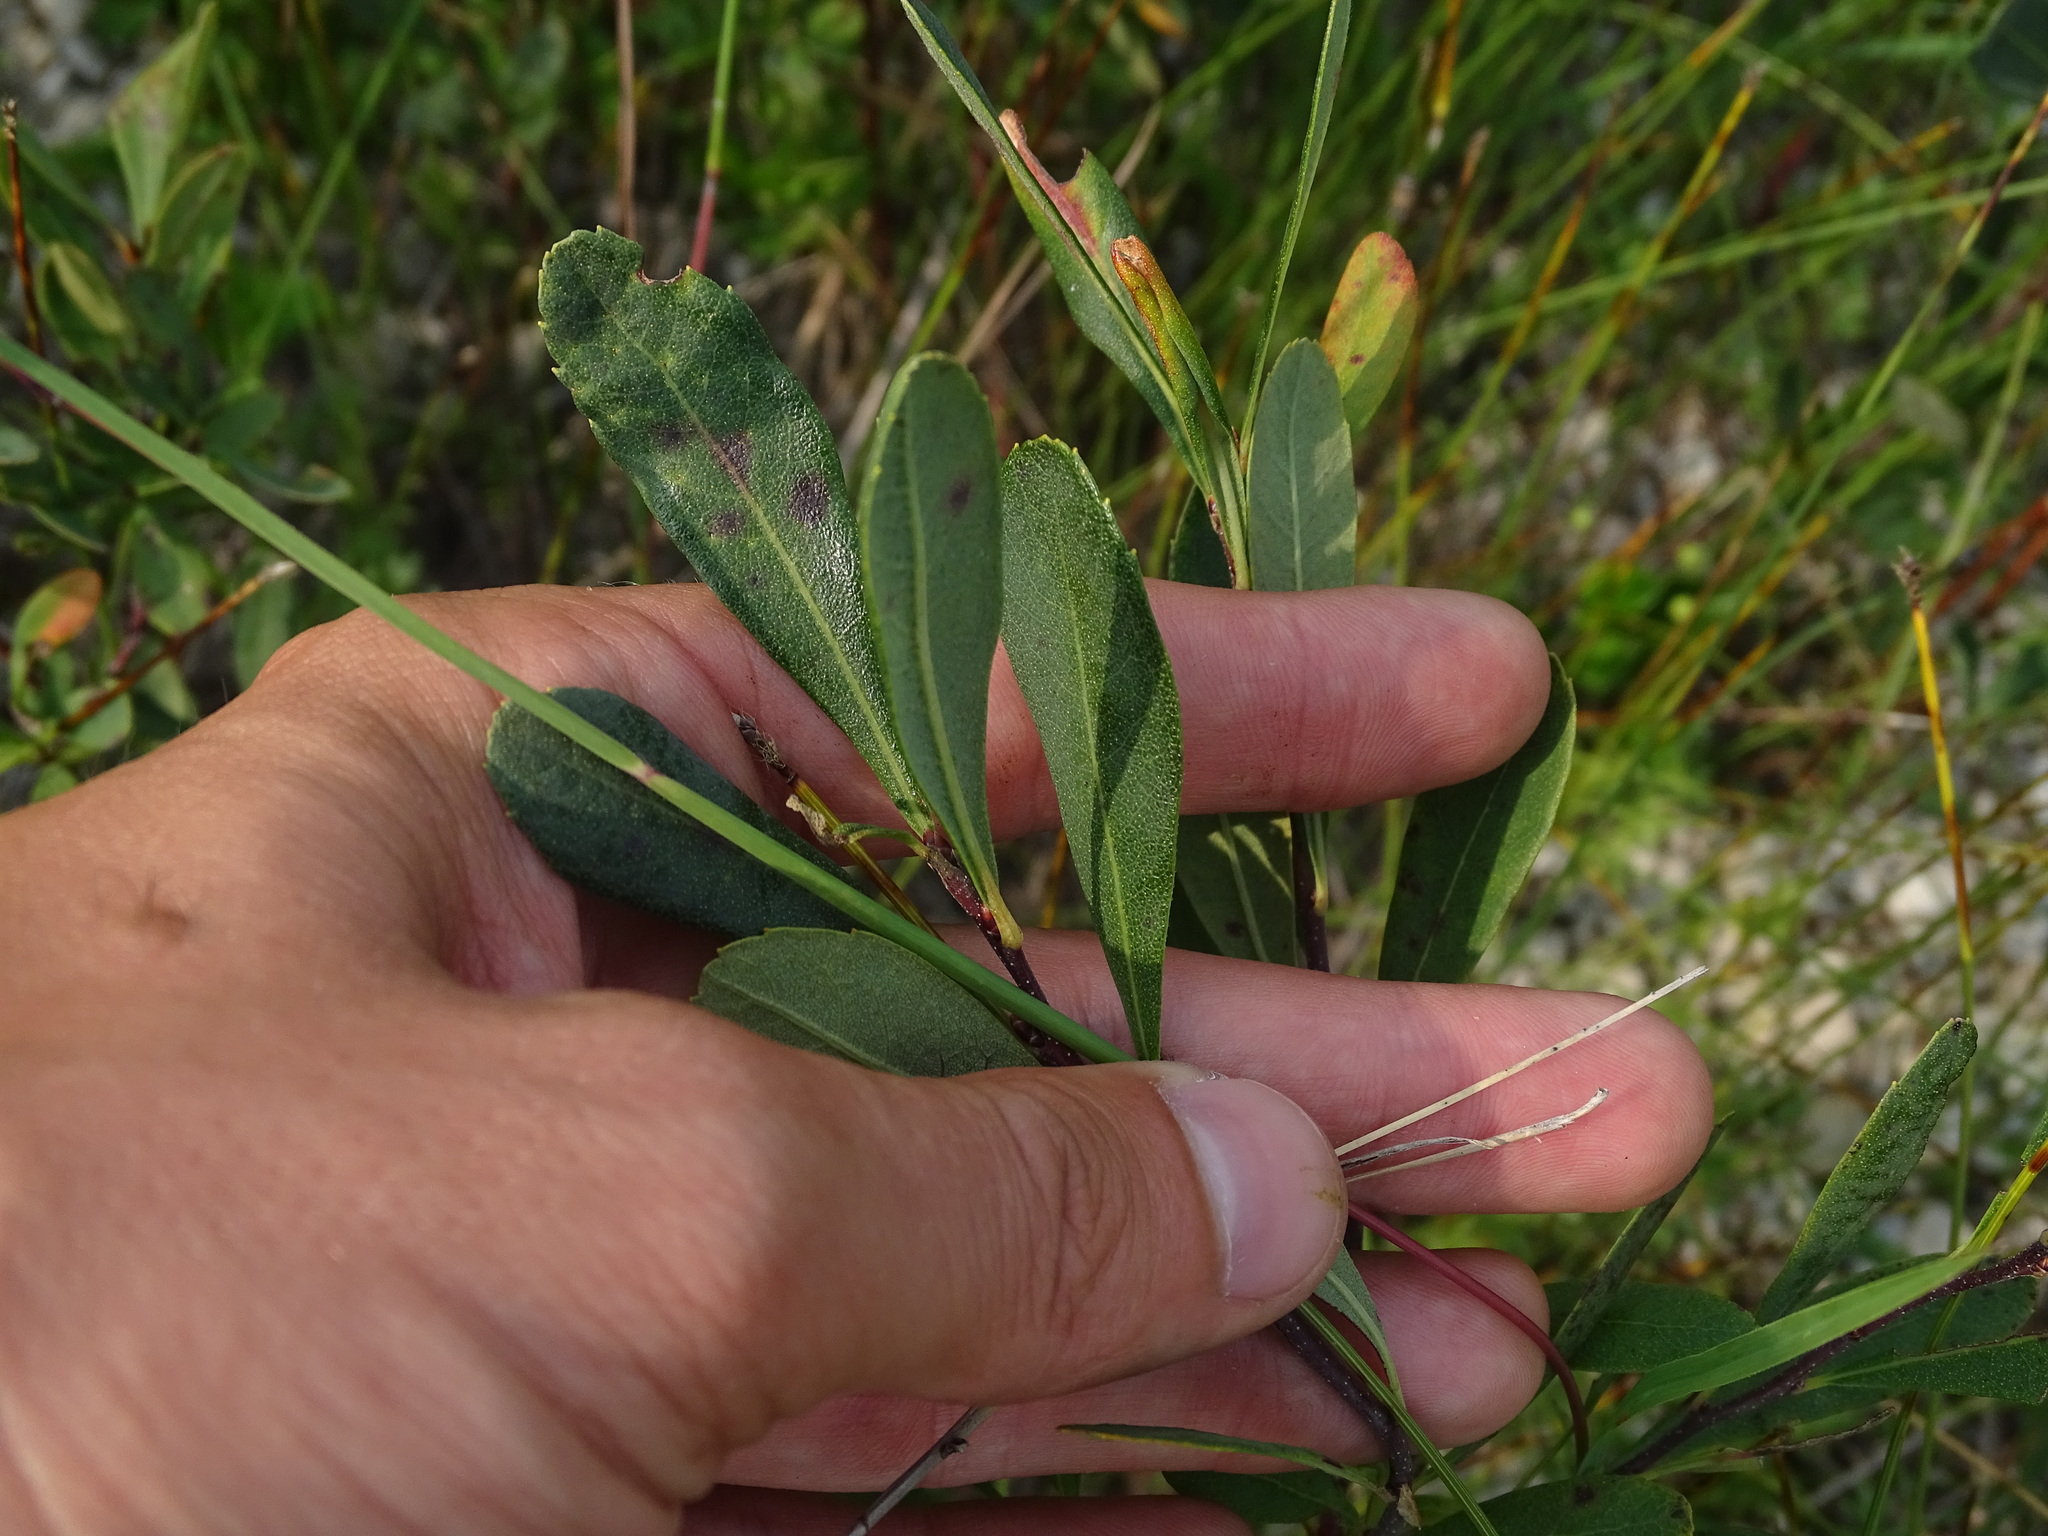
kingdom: Plantae
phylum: Tracheophyta
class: Magnoliopsida
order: Fagales
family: Myricaceae
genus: Myrica
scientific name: Myrica gale
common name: Sweet gale
